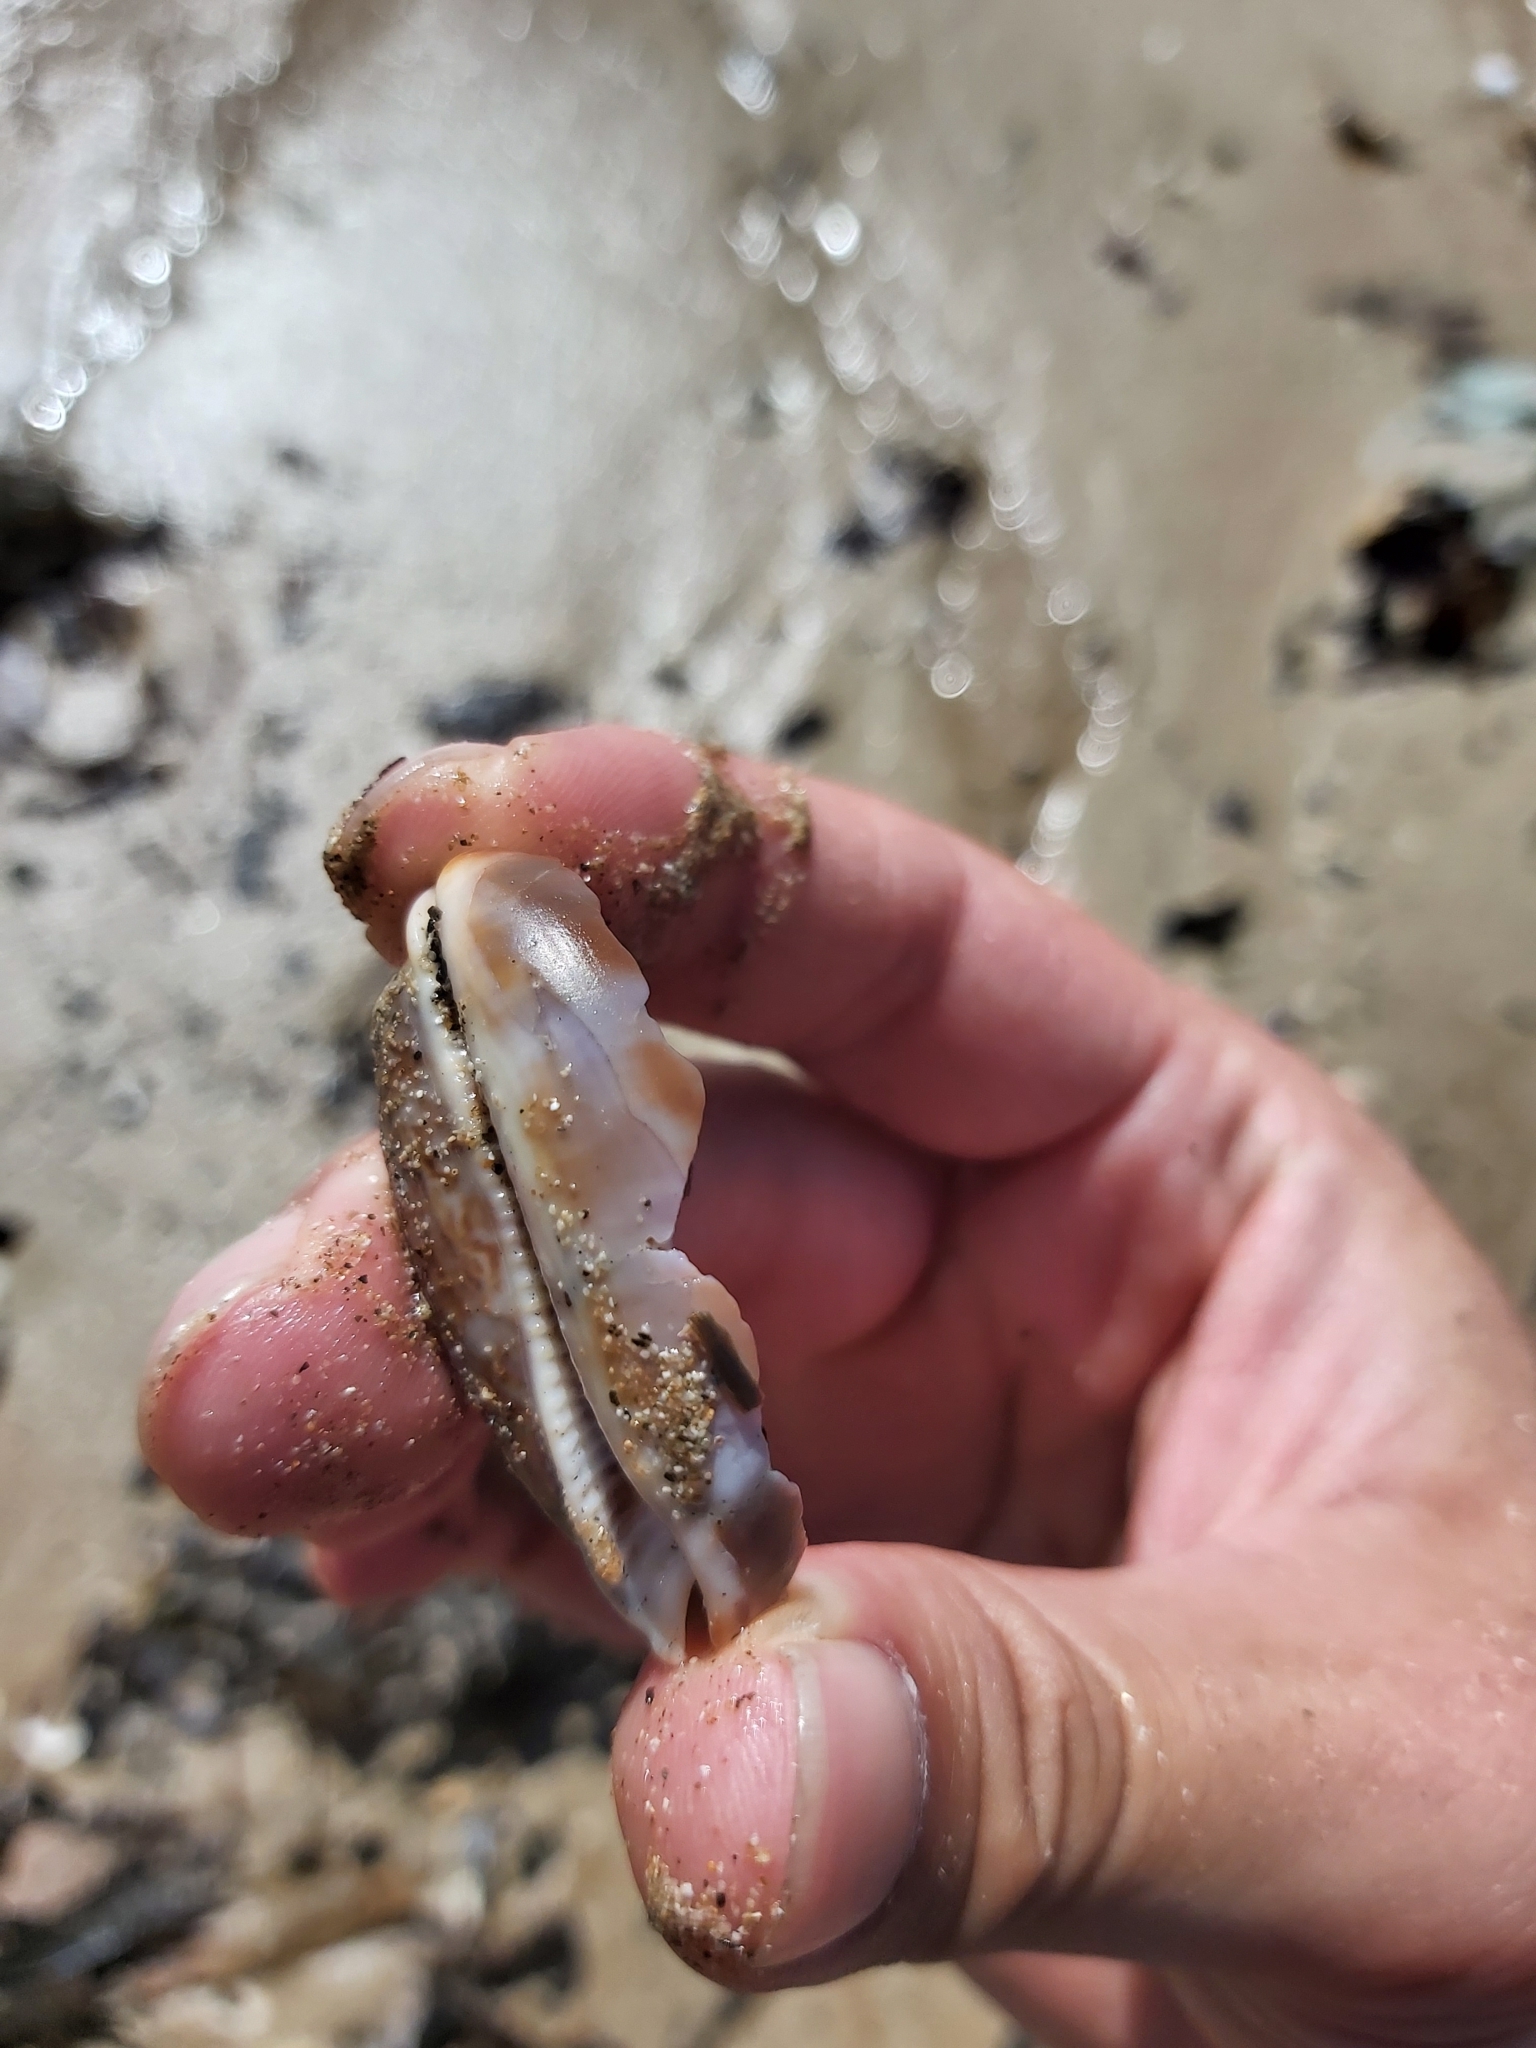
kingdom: Animalia
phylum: Mollusca
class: Gastropoda
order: Littorinimorpha
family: Cypraeidae
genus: Mauritia
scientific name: Mauritia eglantina
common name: Dog-rose cowrie
